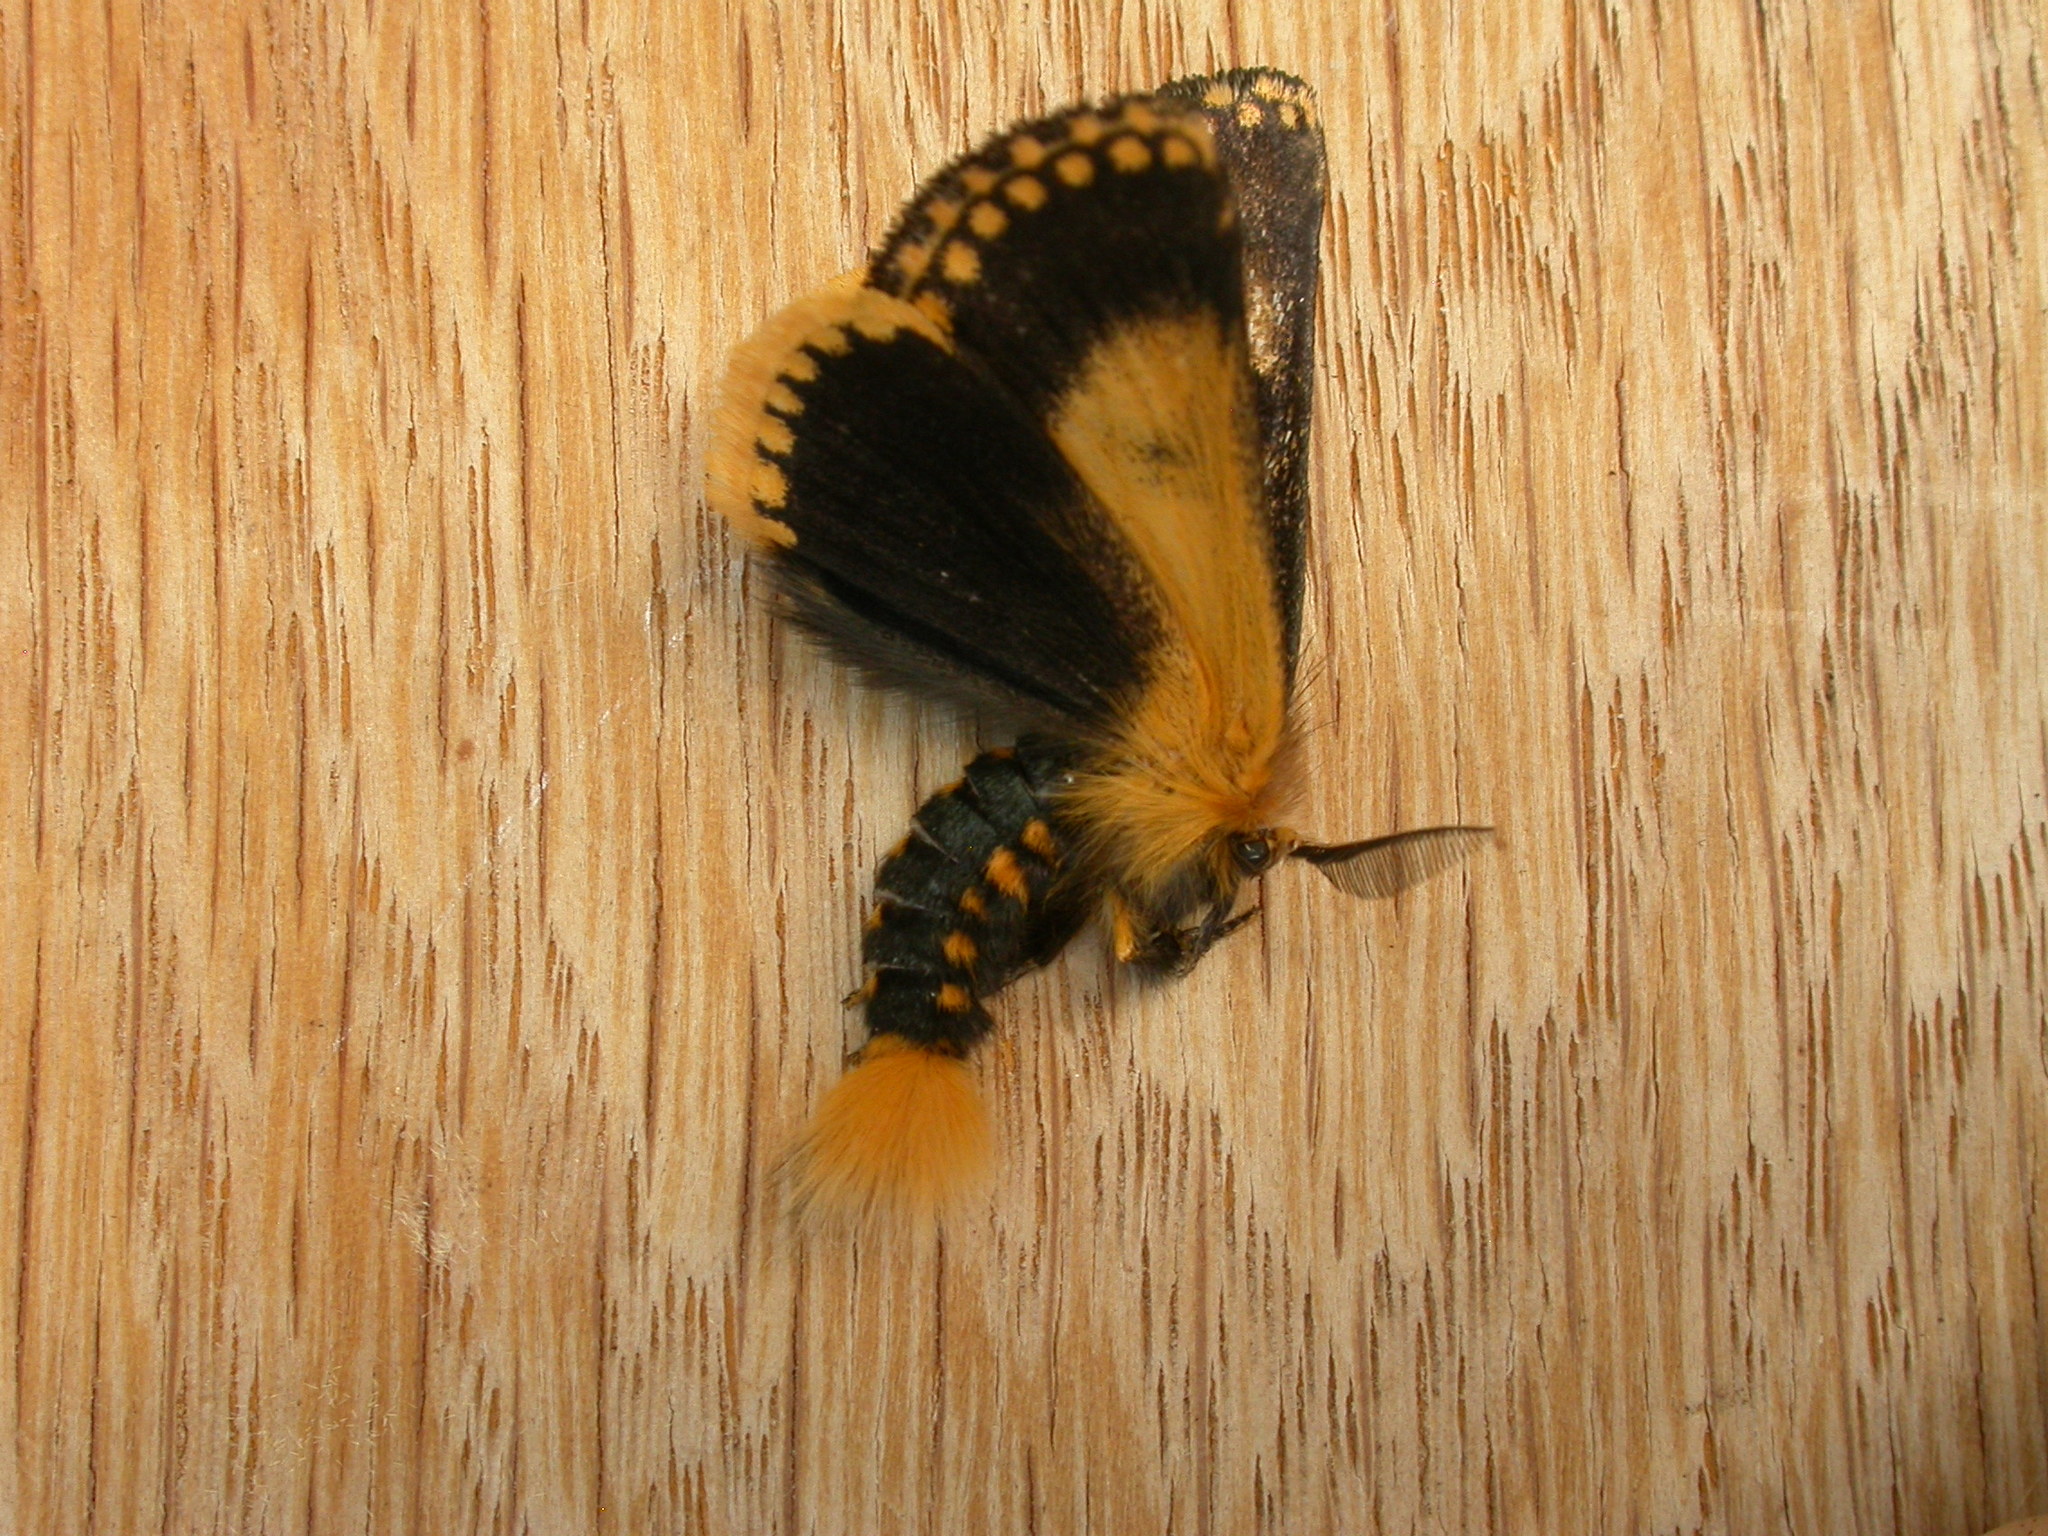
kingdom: Animalia
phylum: Arthropoda
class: Insecta
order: Lepidoptera
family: Notodontidae
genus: Epicoma
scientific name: Epicoma contristis
